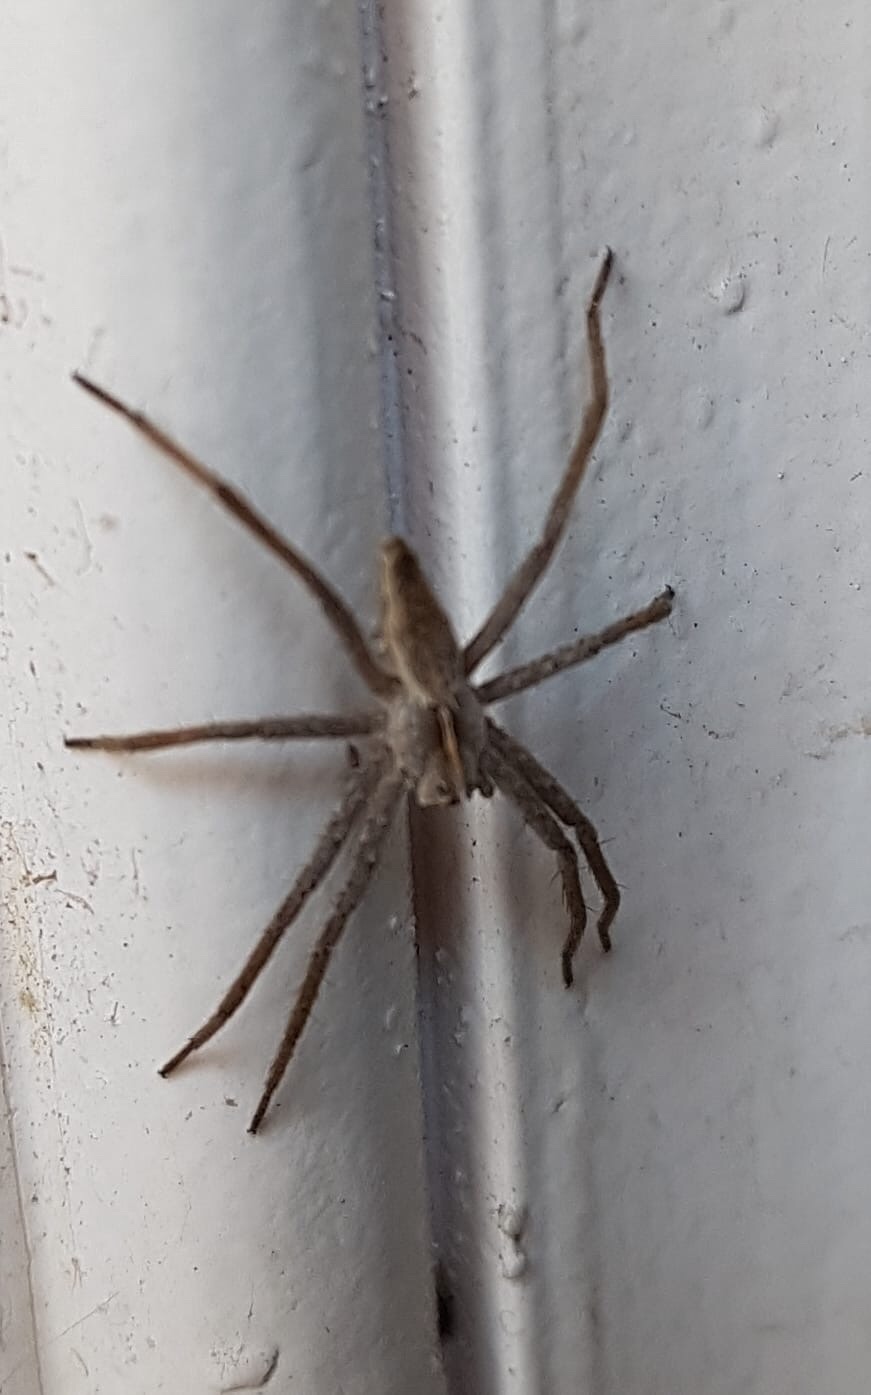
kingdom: Animalia
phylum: Arthropoda
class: Arachnida
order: Araneae
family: Pisauridae
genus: Pisaura
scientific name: Pisaura mirabilis
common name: Tent spider
